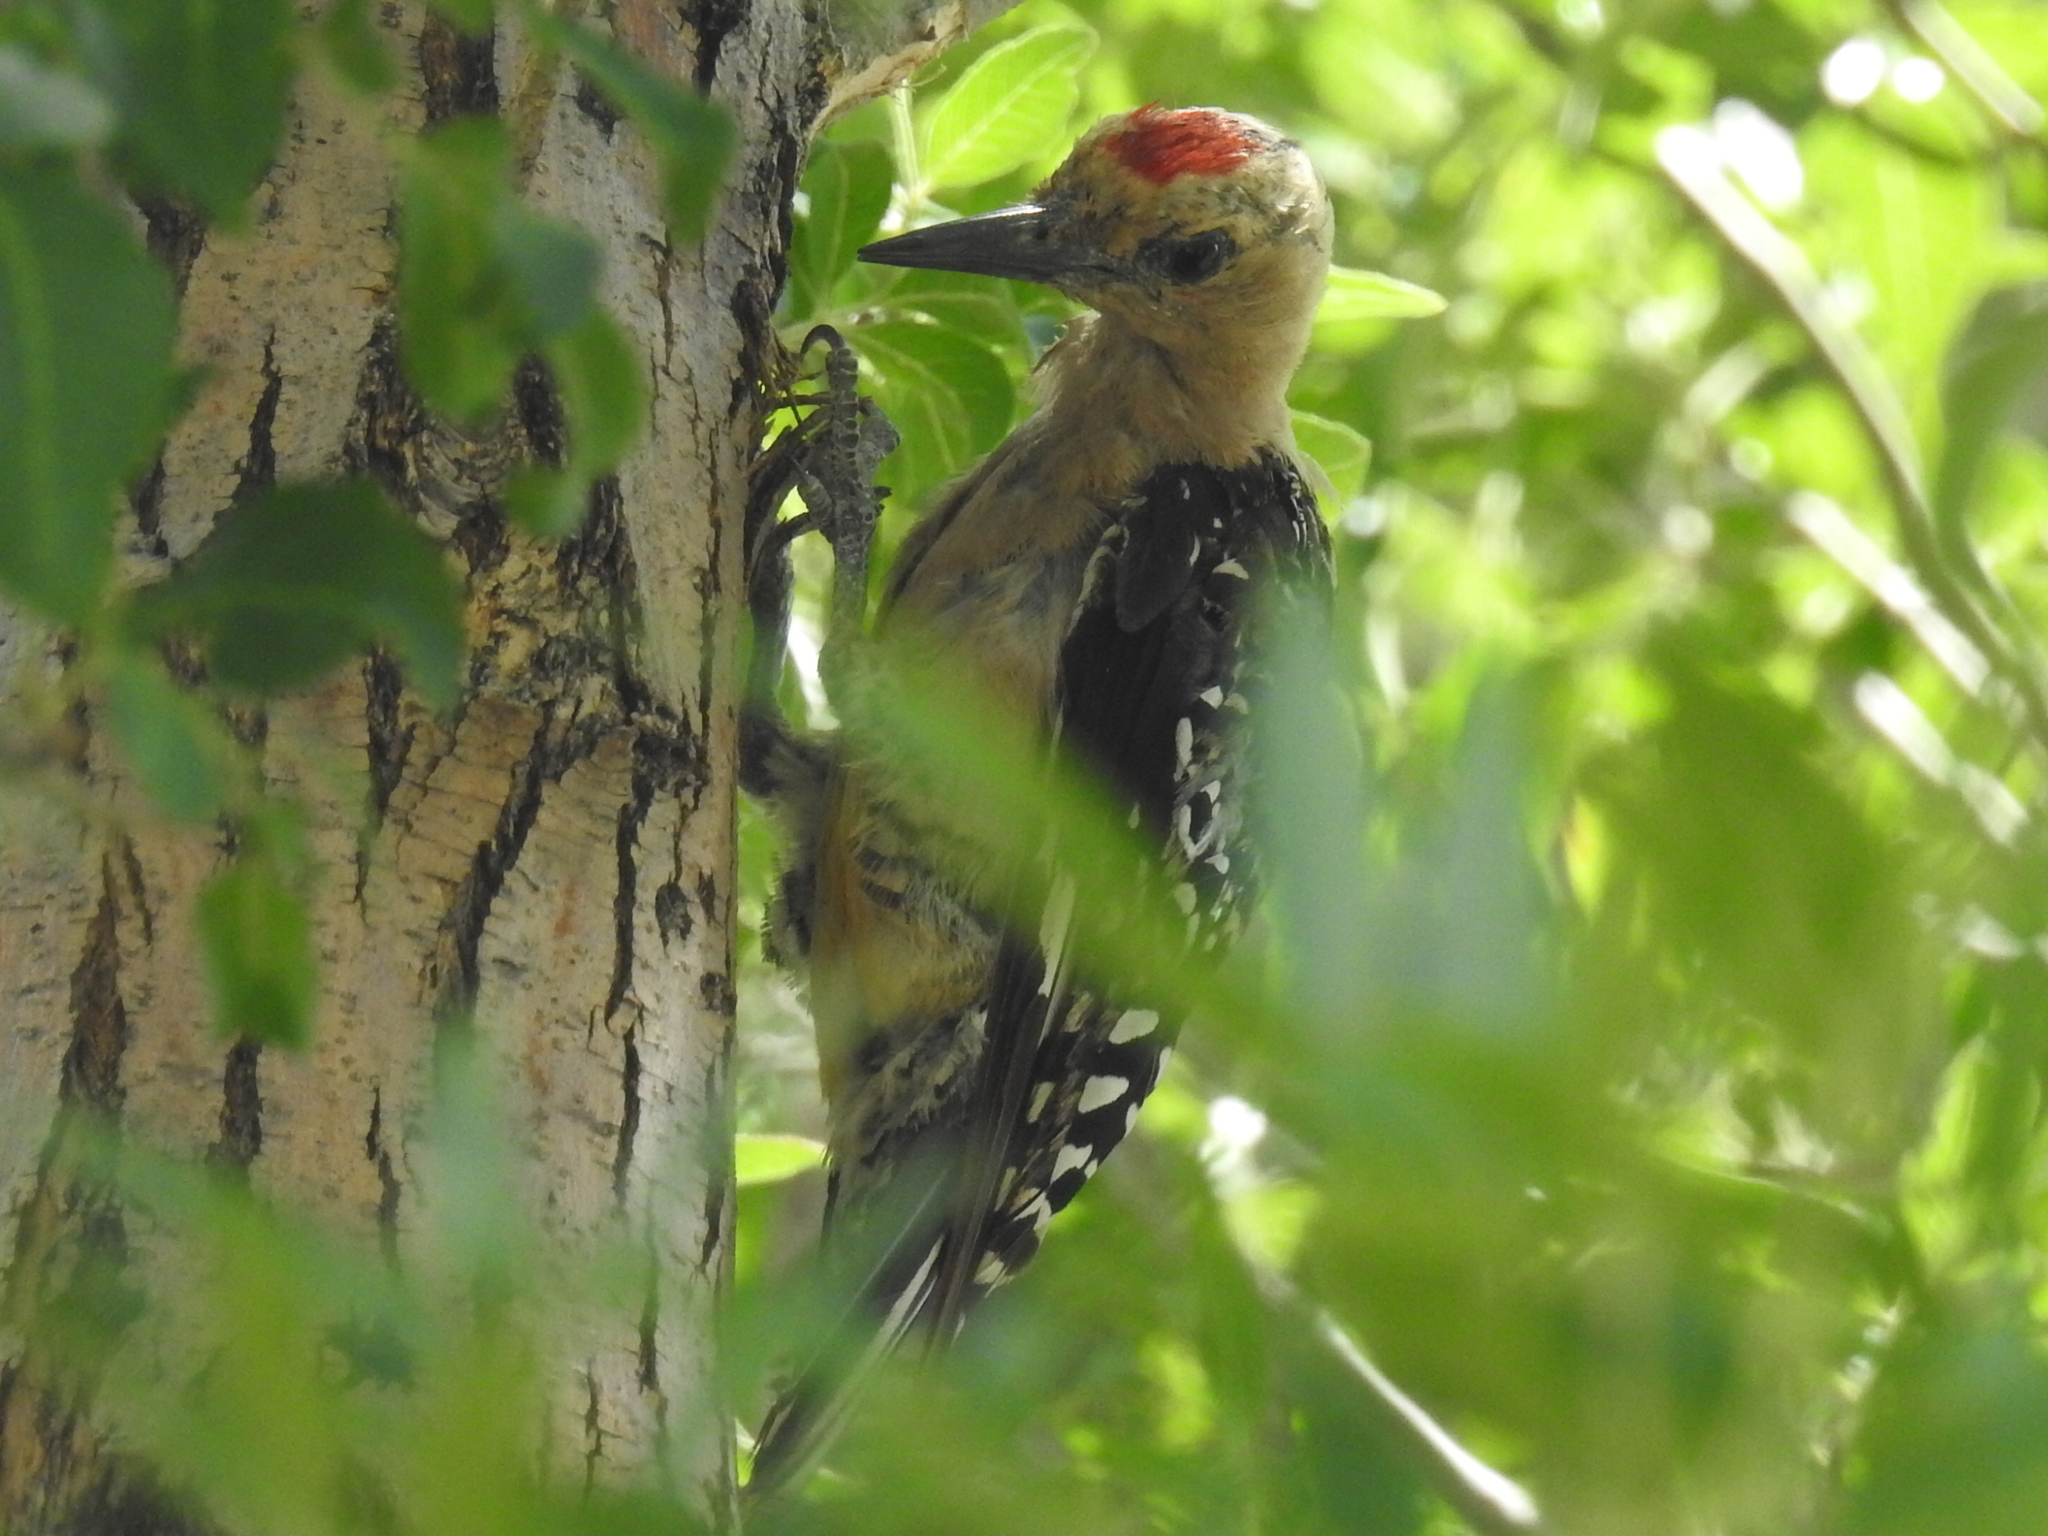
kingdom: Animalia
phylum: Chordata
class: Aves
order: Piciformes
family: Picidae
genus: Melanerpes
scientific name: Melanerpes uropygialis
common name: Gila woodpecker
